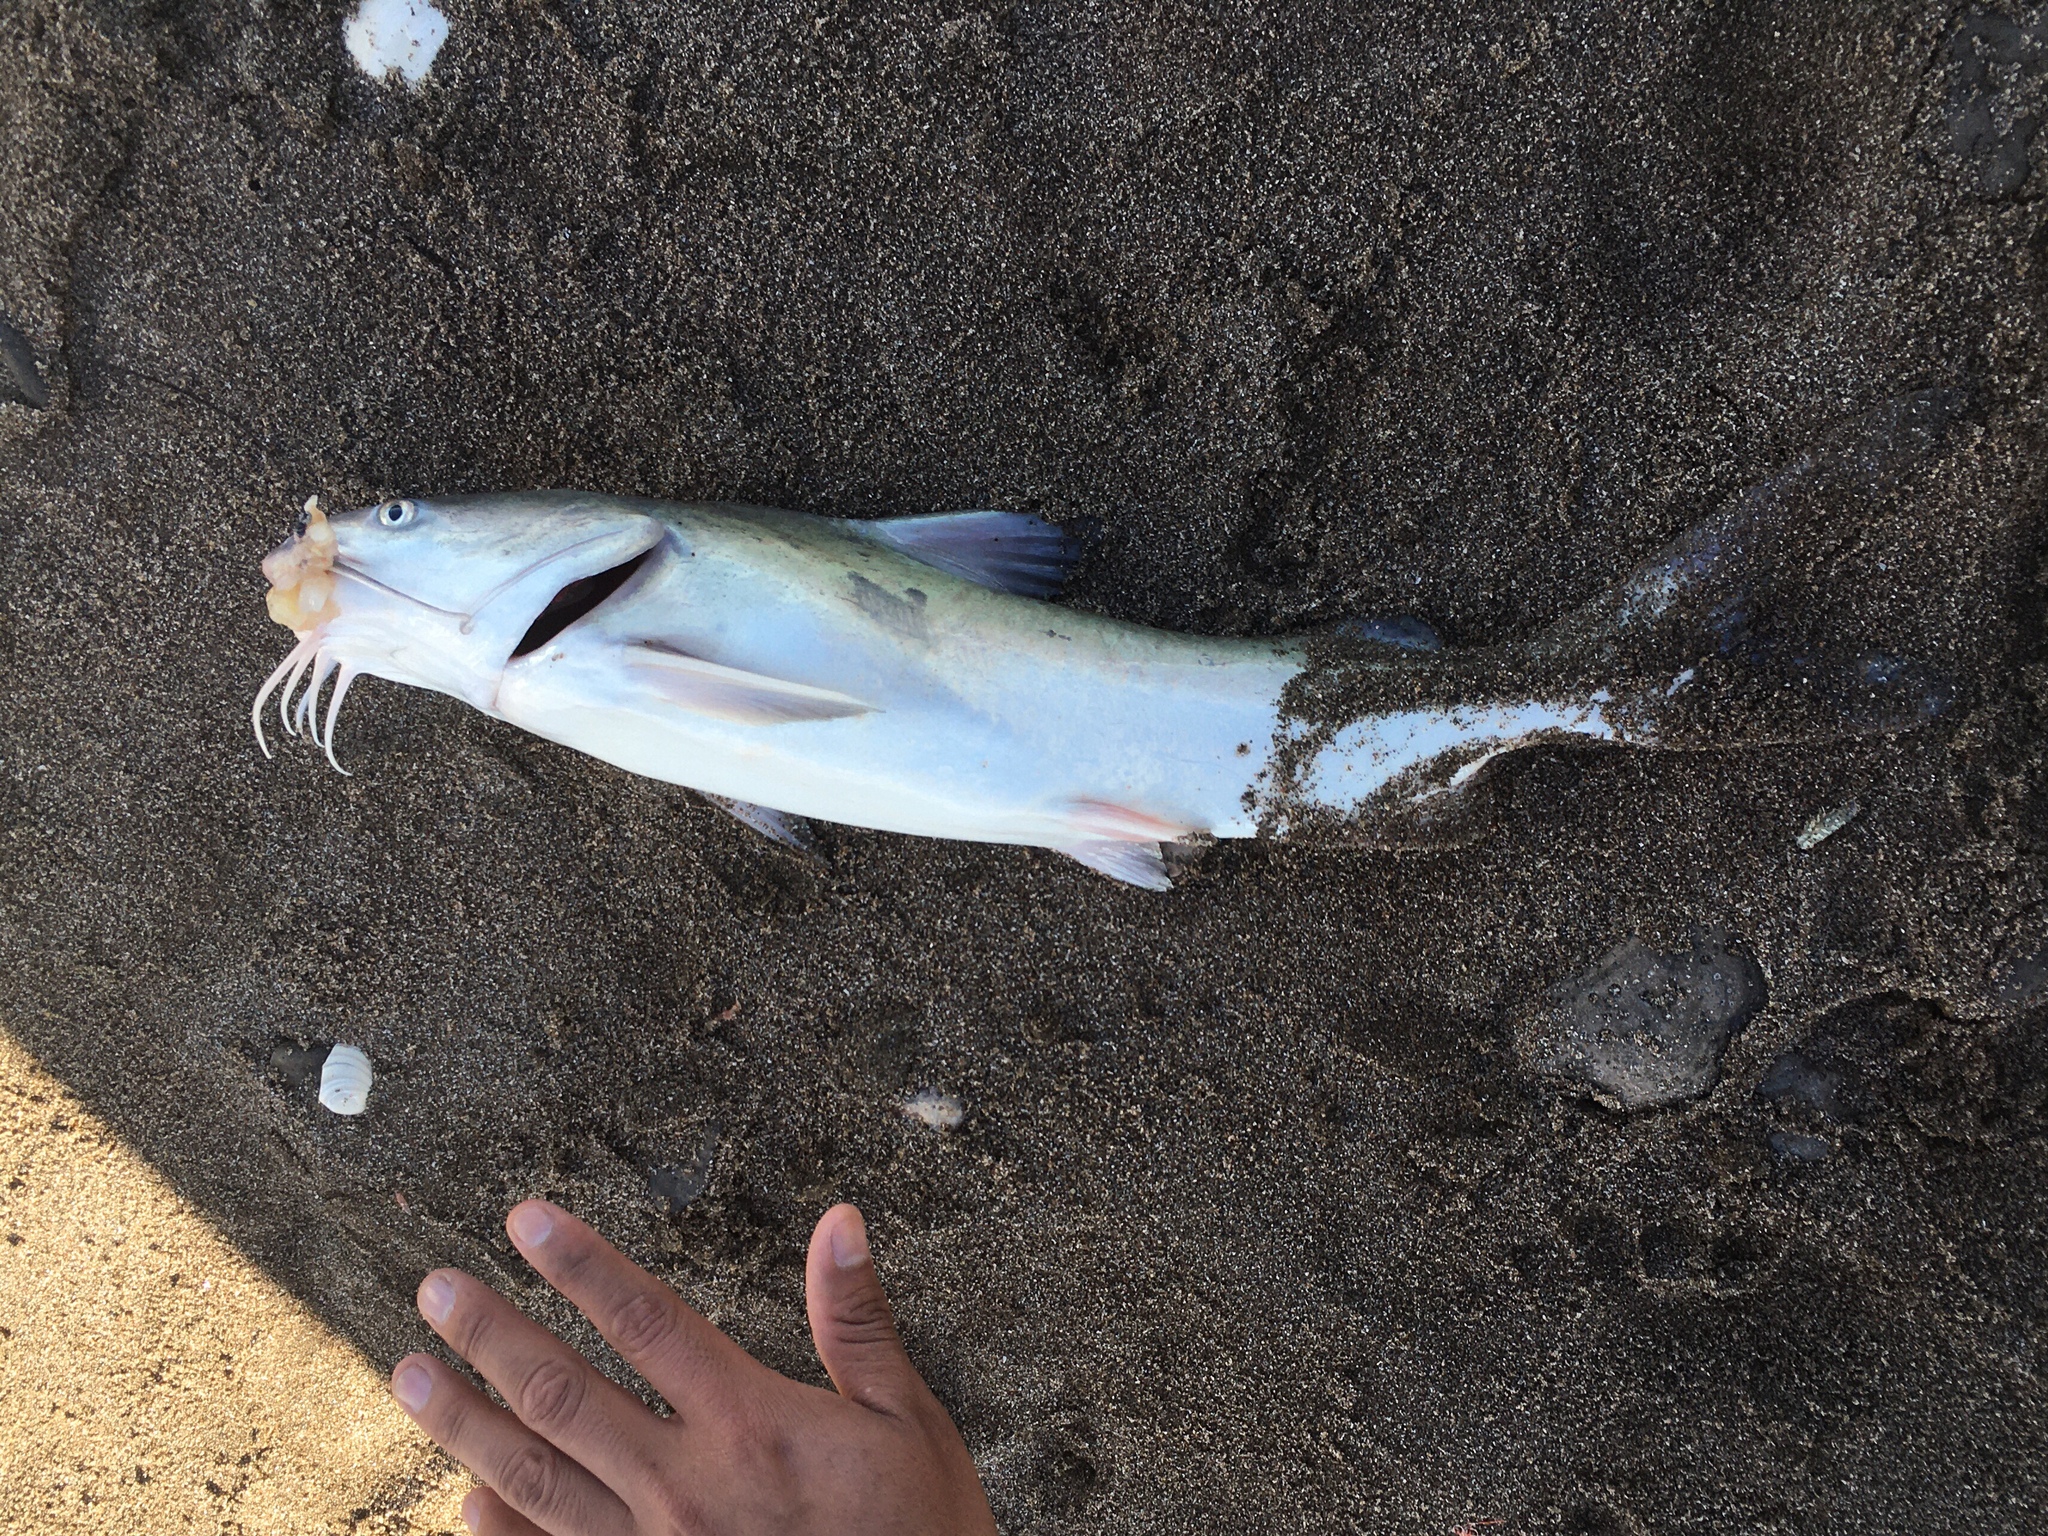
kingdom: Animalia
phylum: Chordata
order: Siluriformes
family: Ariidae
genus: Genidens
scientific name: Genidens barbus
